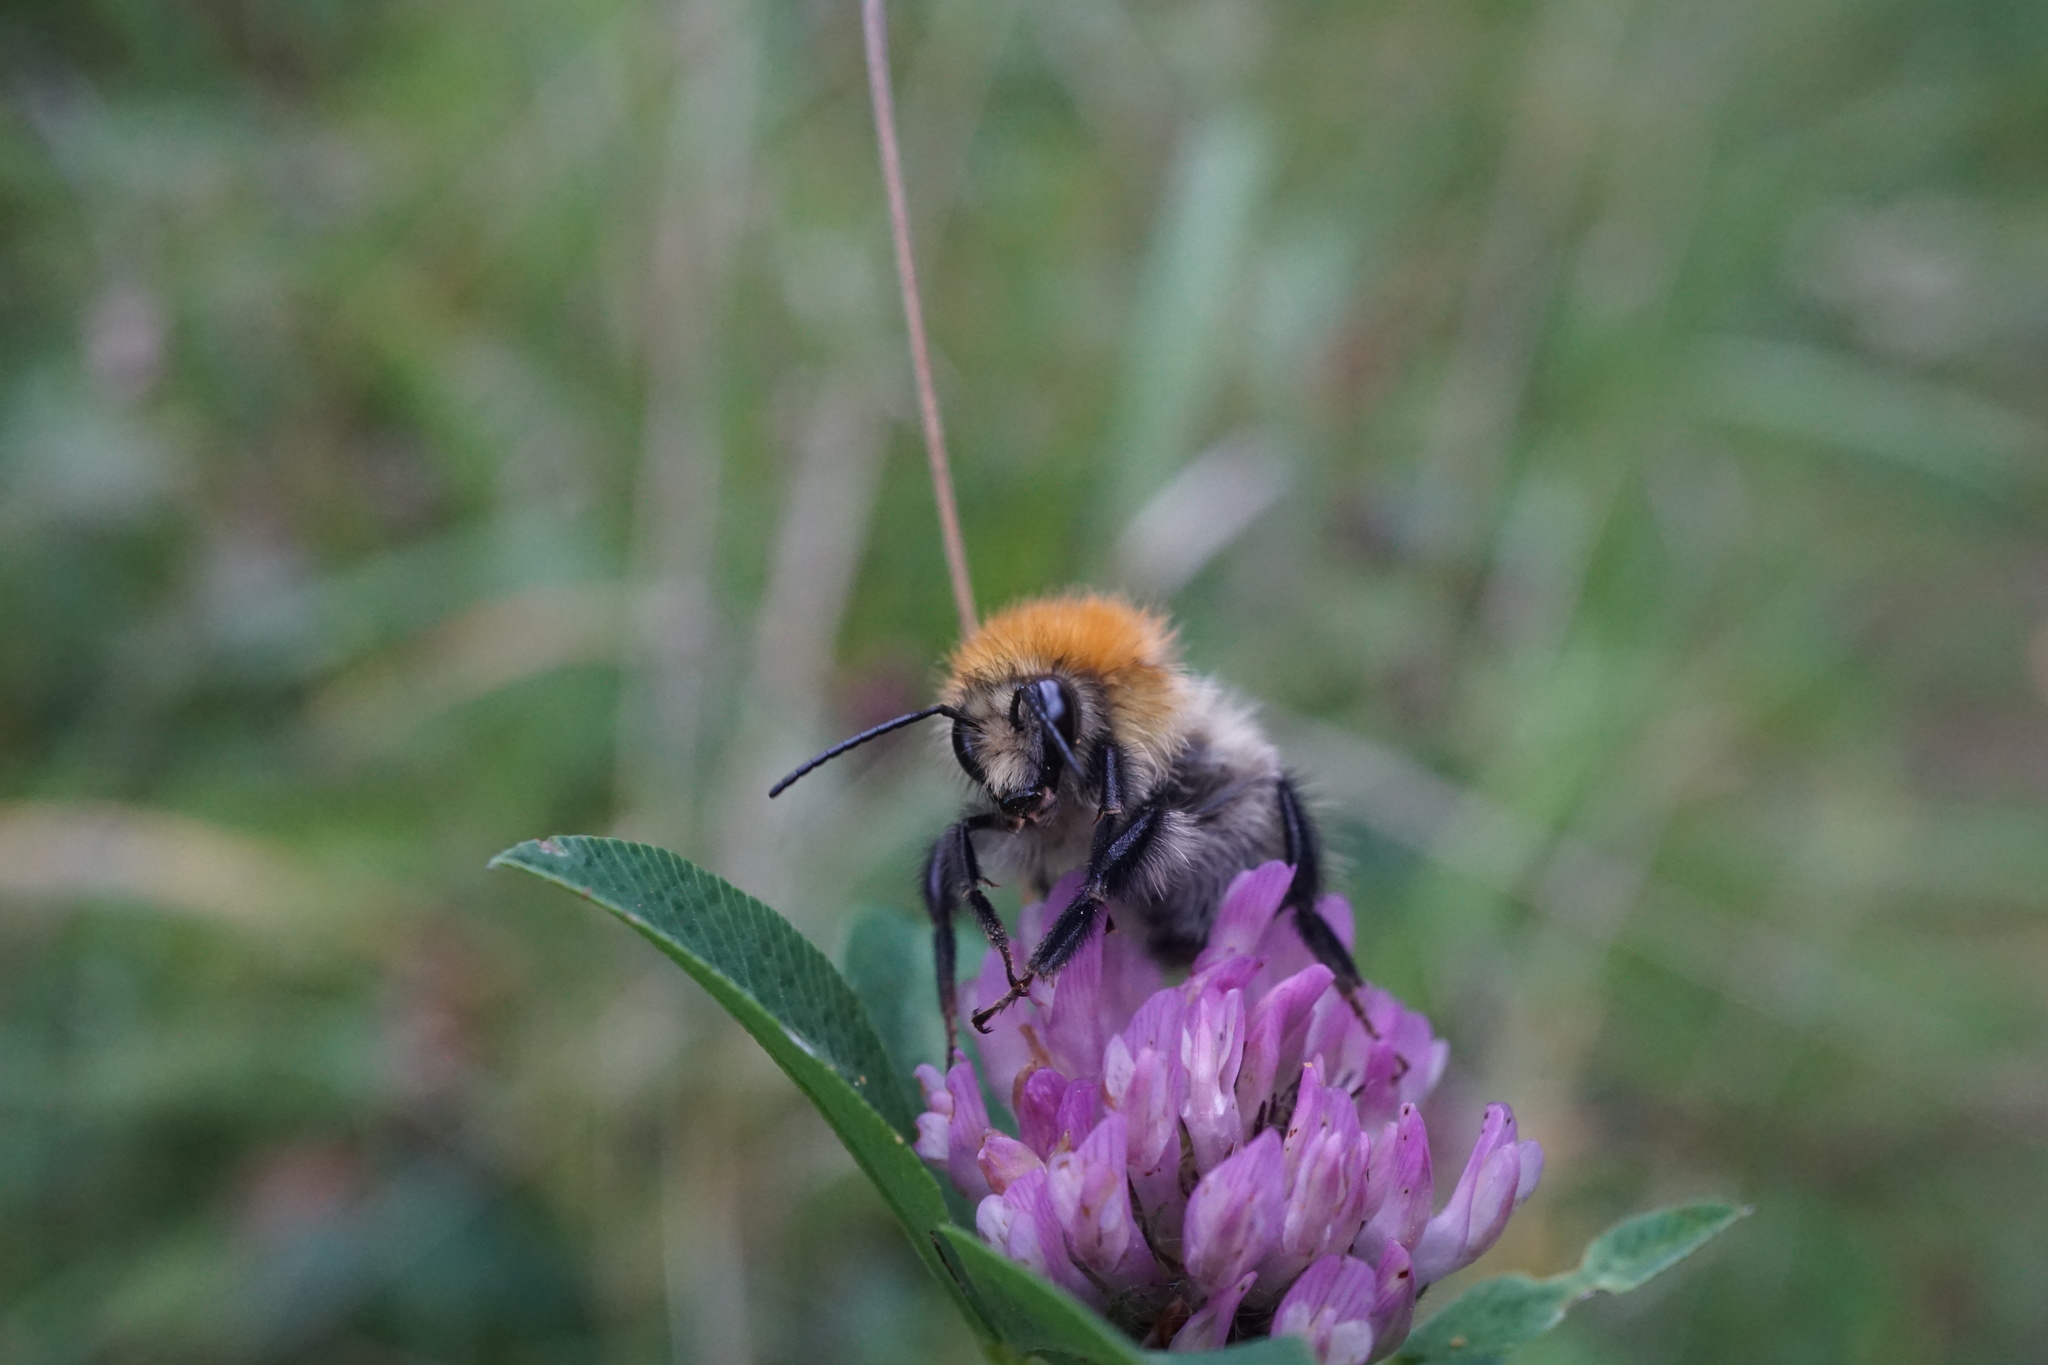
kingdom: Animalia
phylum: Arthropoda
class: Insecta
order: Hymenoptera
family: Apidae
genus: Bombus
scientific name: Bombus pascuorum
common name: Common carder bee
